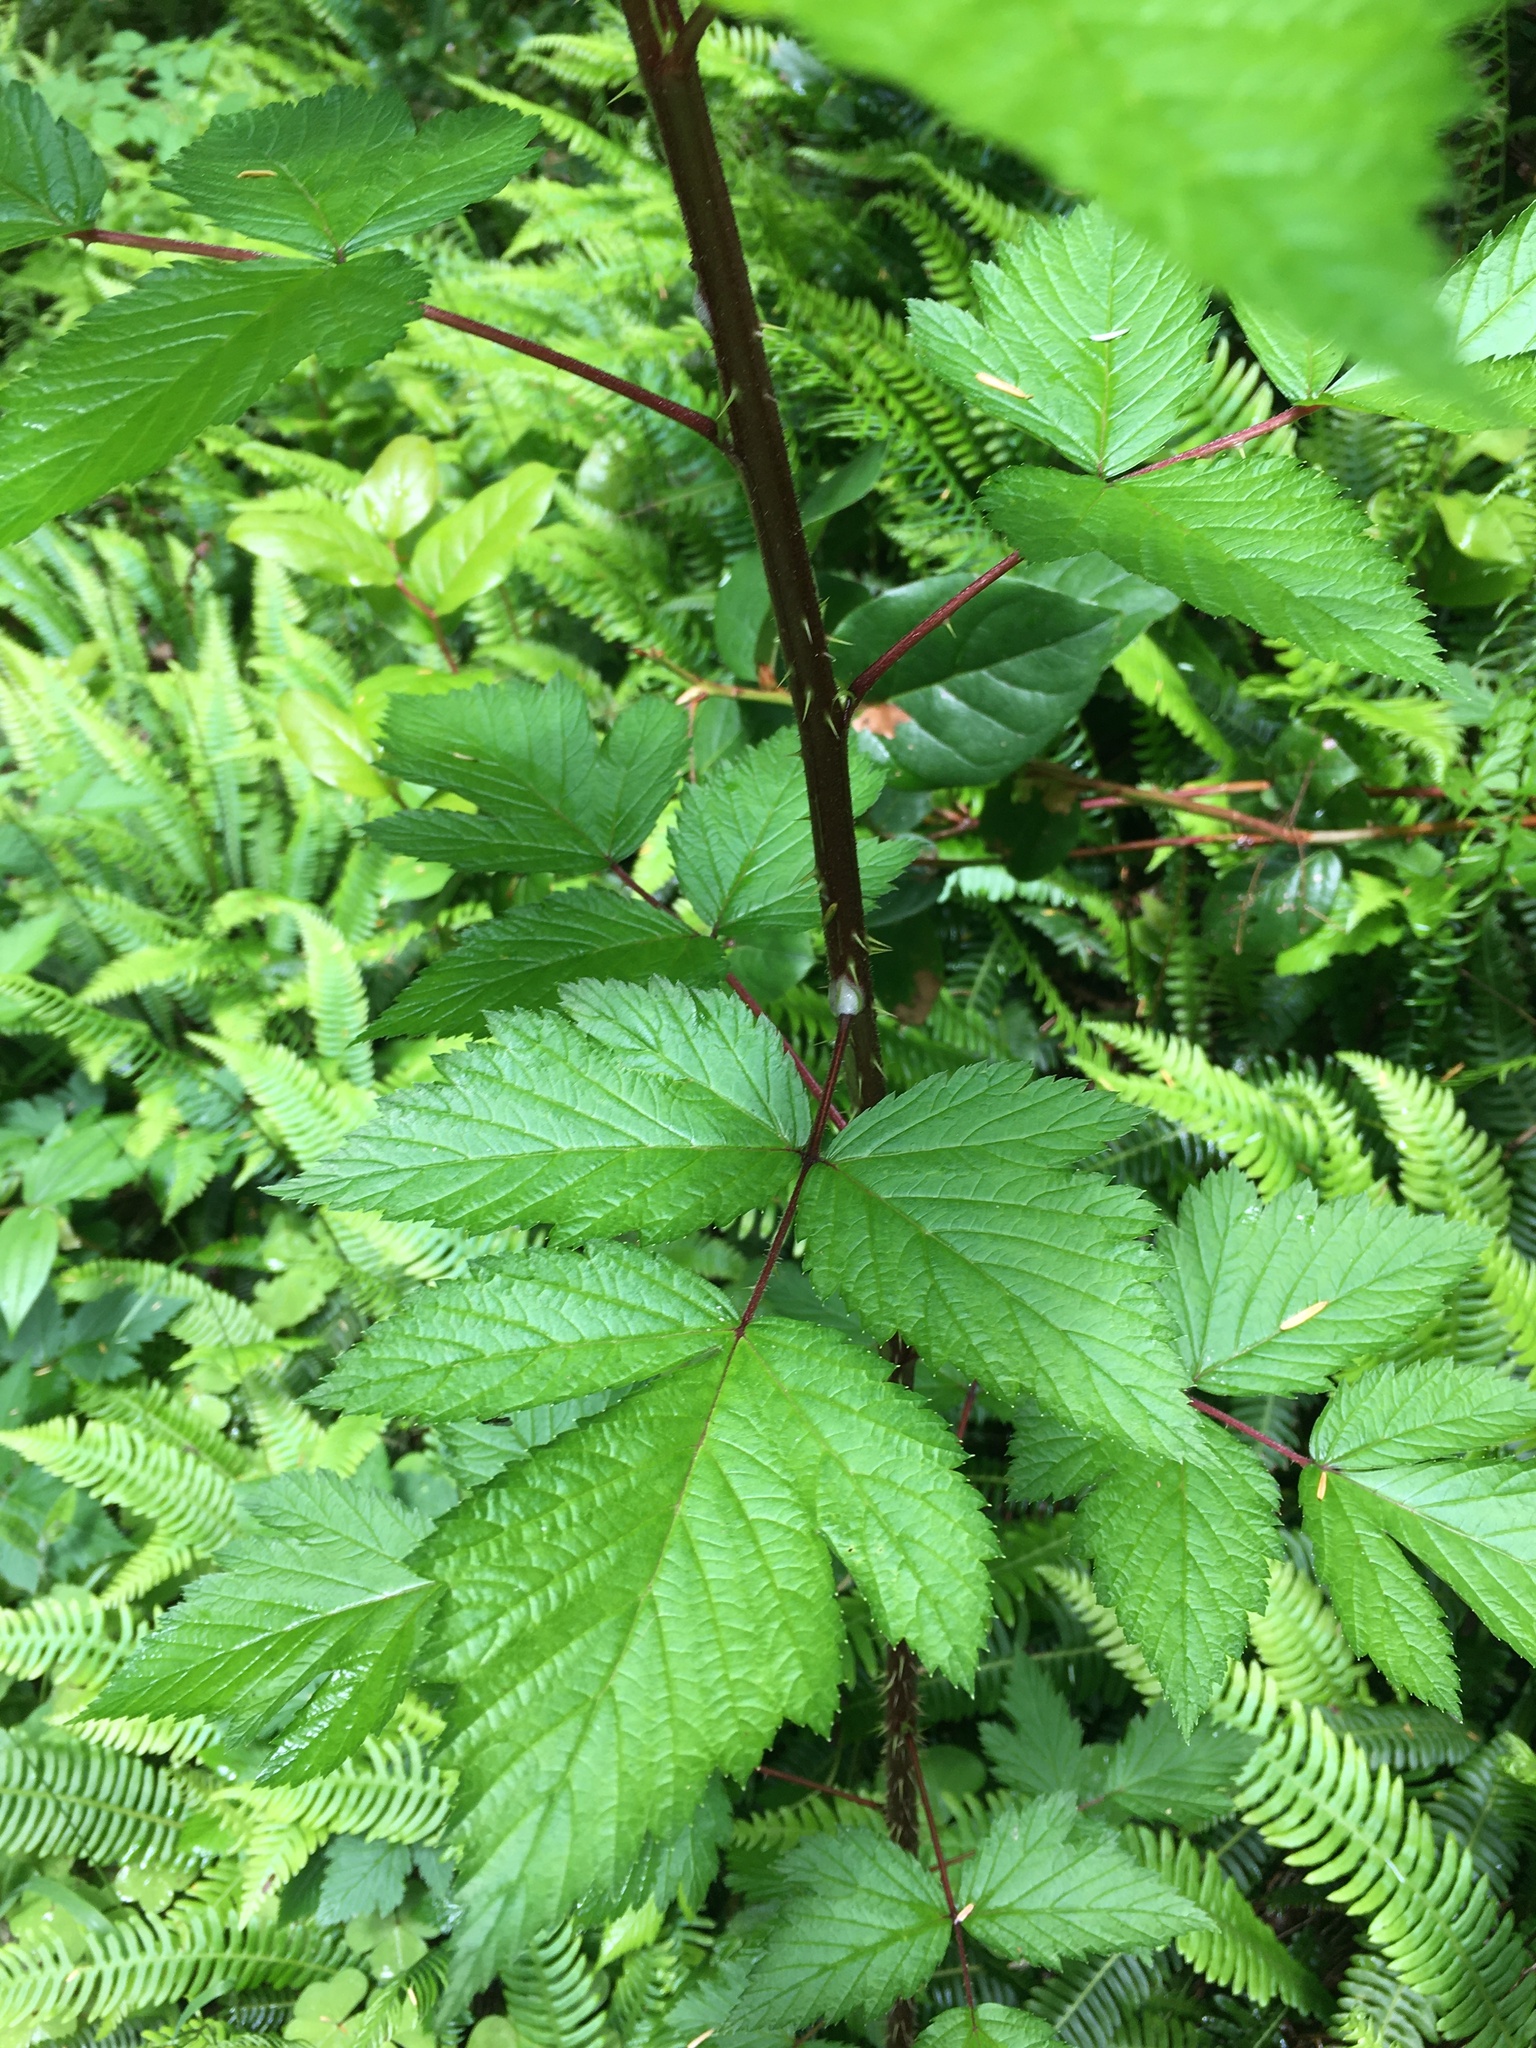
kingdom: Plantae
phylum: Tracheophyta
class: Magnoliopsida
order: Rosales
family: Rosaceae
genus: Rubus
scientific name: Rubus spectabilis
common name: Salmonberry
